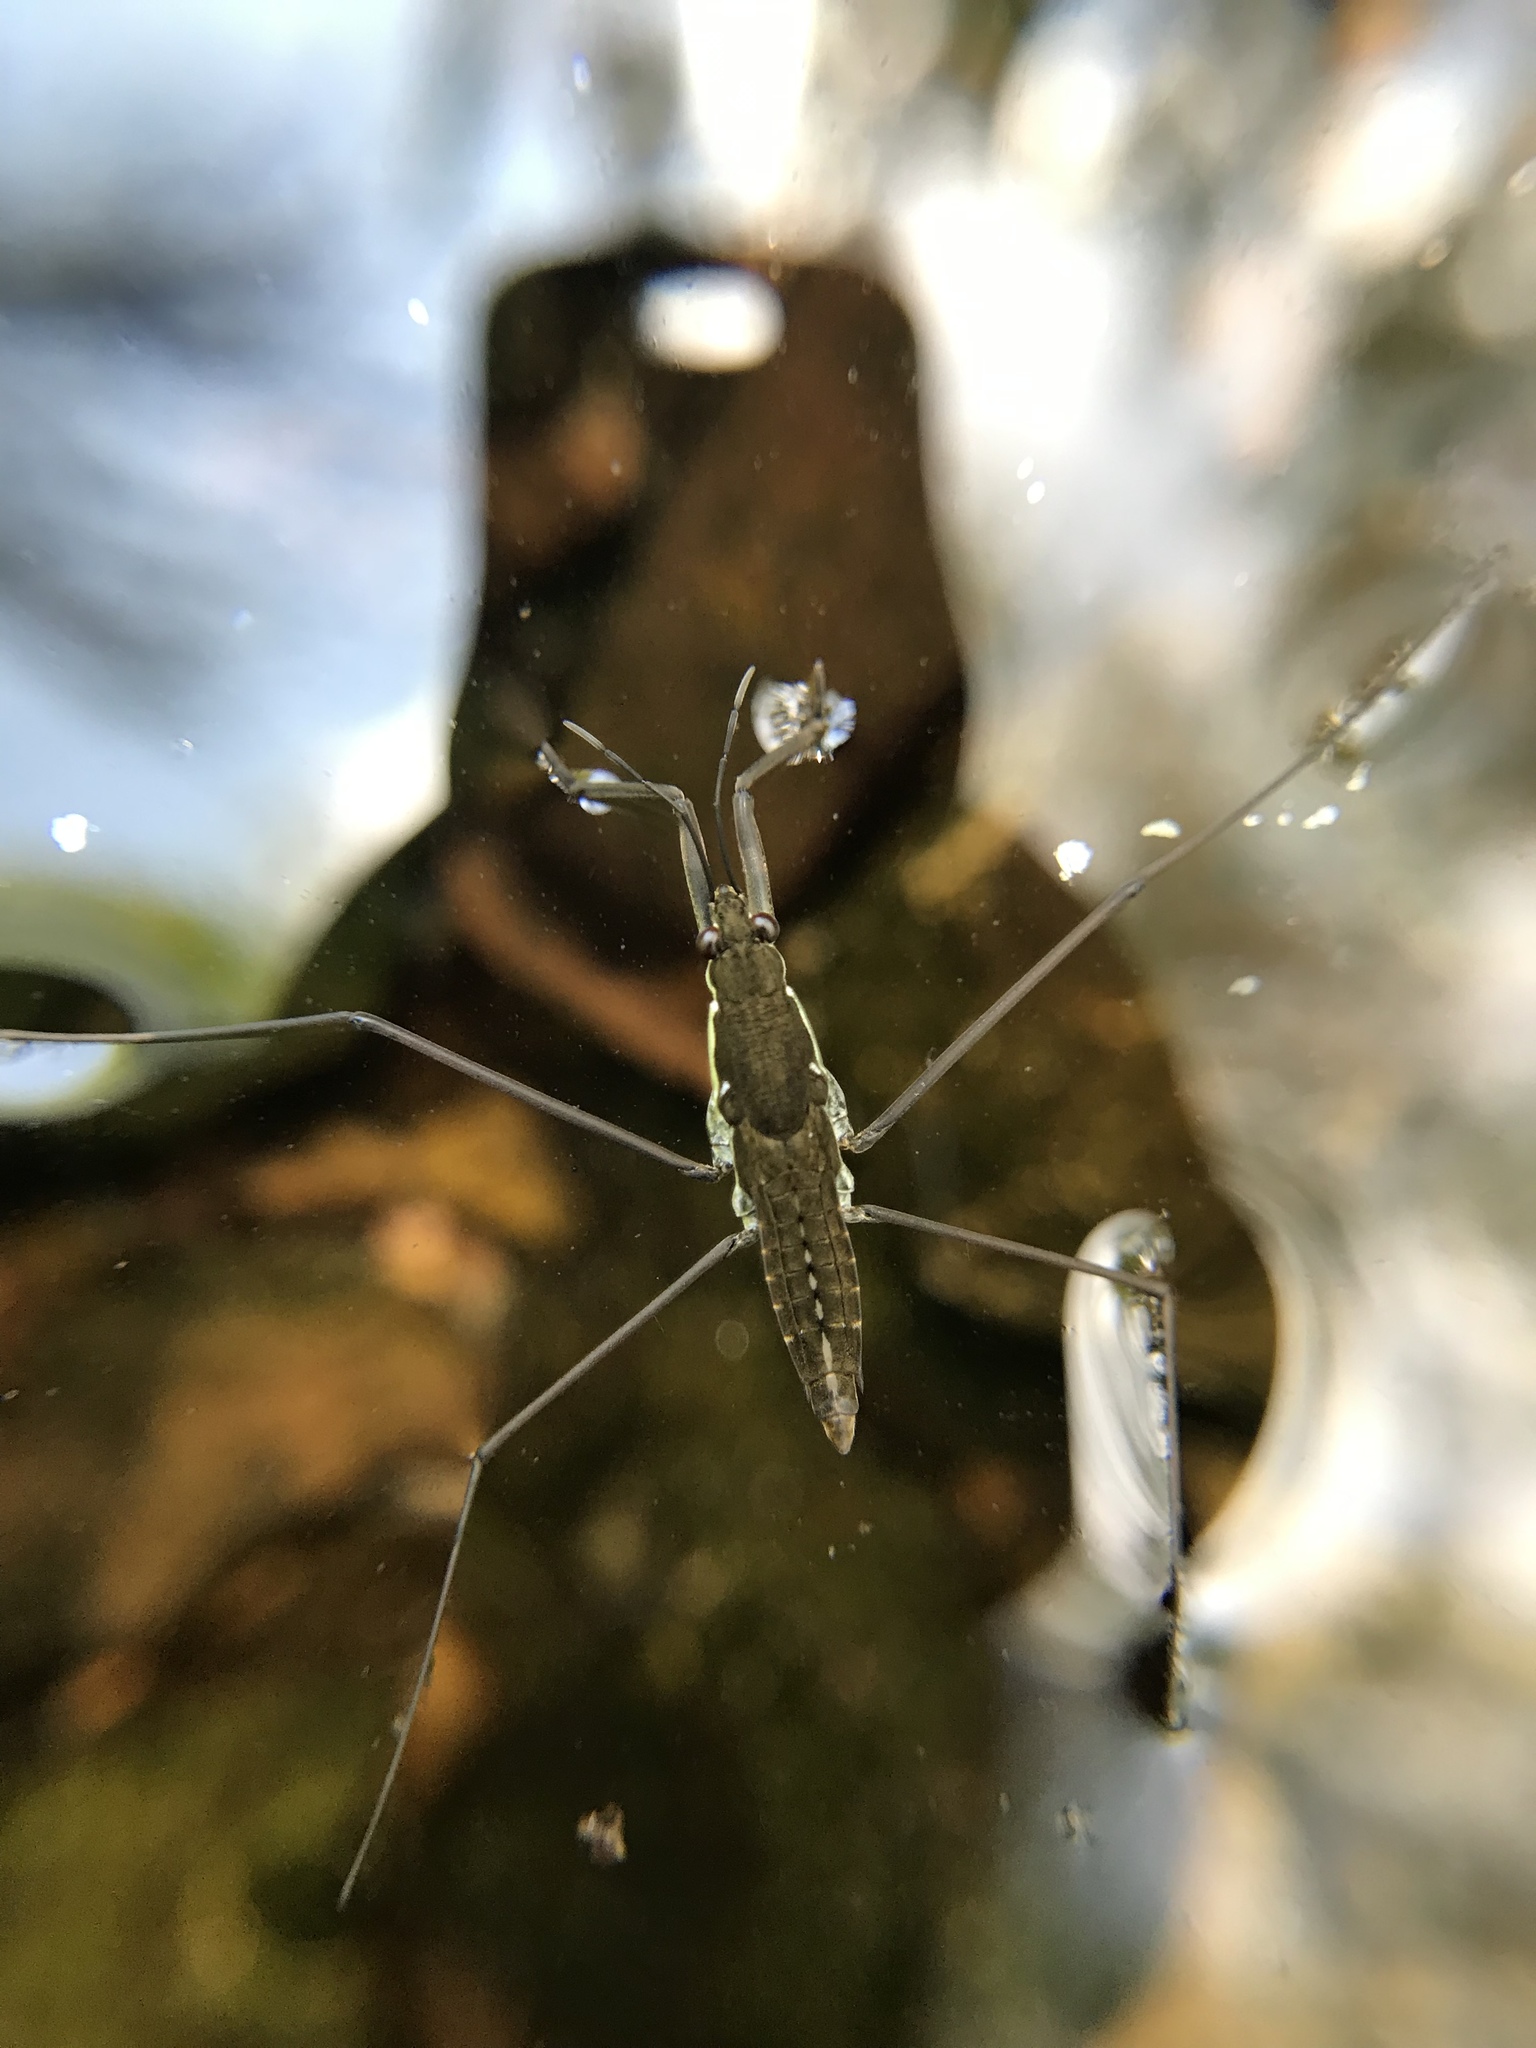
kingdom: Animalia
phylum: Arthropoda
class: Insecta
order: Hemiptera
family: Gerridae
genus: Aquarius
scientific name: Aquarius
